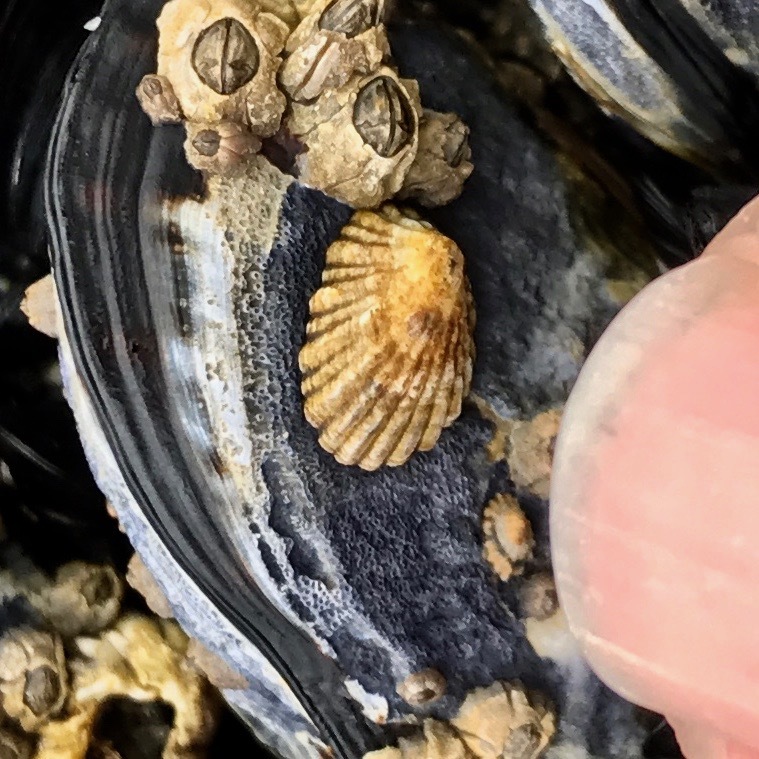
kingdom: Animalia
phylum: Mollusca
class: Gastropoda
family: Lottiidae
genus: Lottia
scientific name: Lottia digitalis
